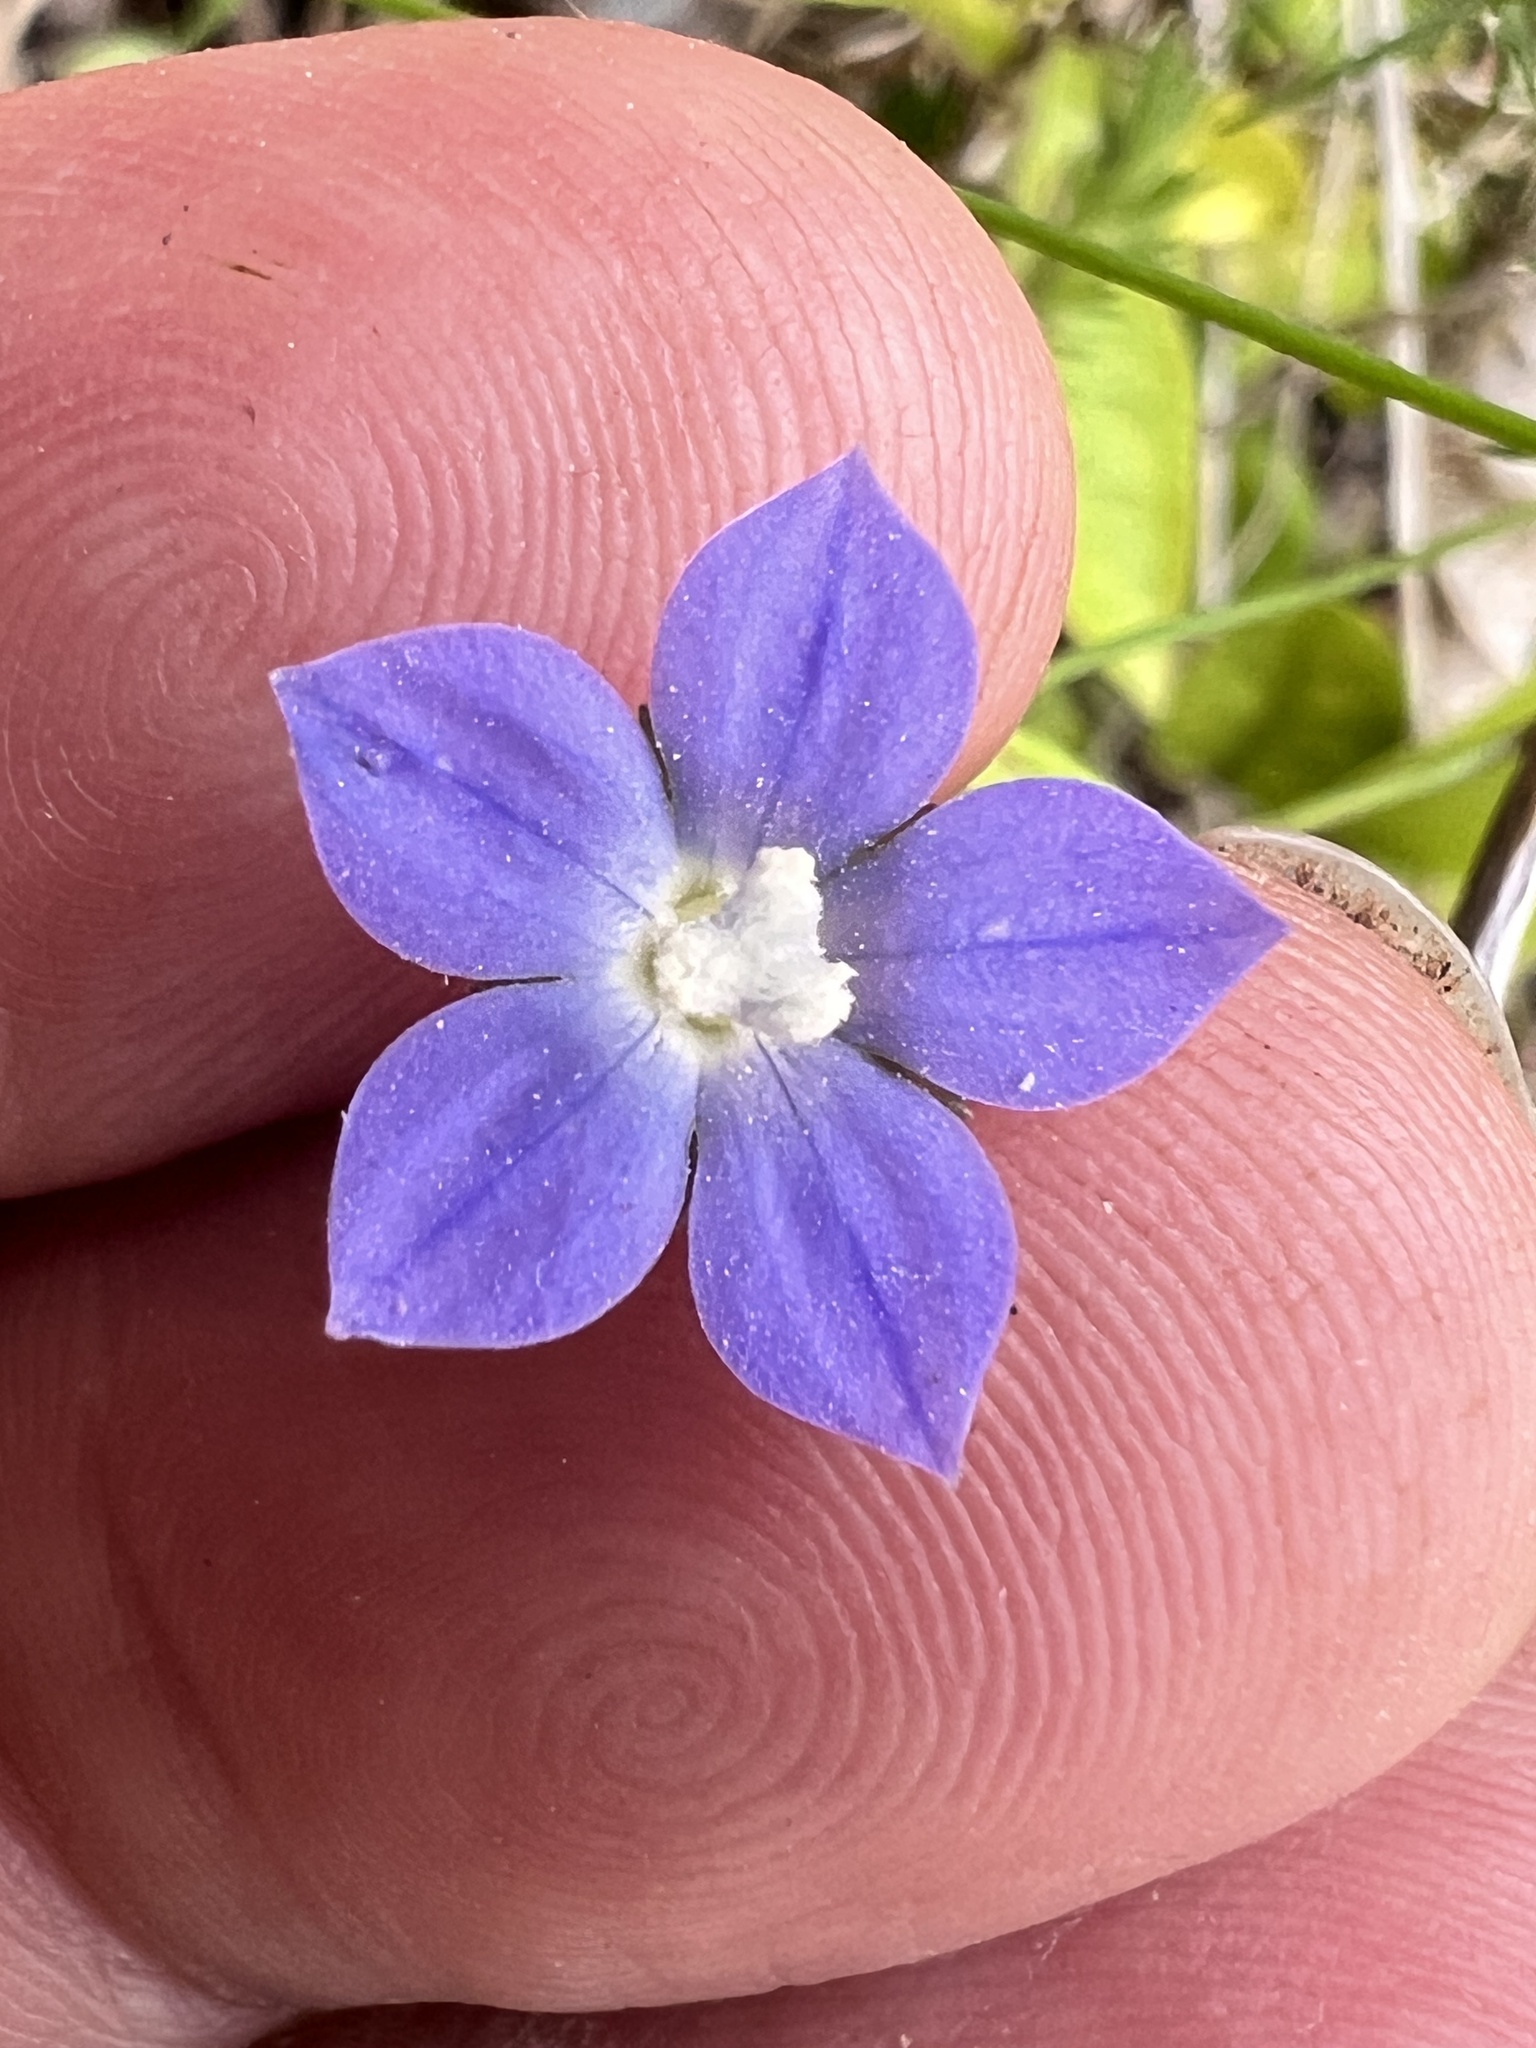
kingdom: Plantae
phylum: Tracheophyta
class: Magnoliopsida
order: Asterales
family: Campanulaceae
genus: Wahlenbergia
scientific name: Wahlenbergia violacea
